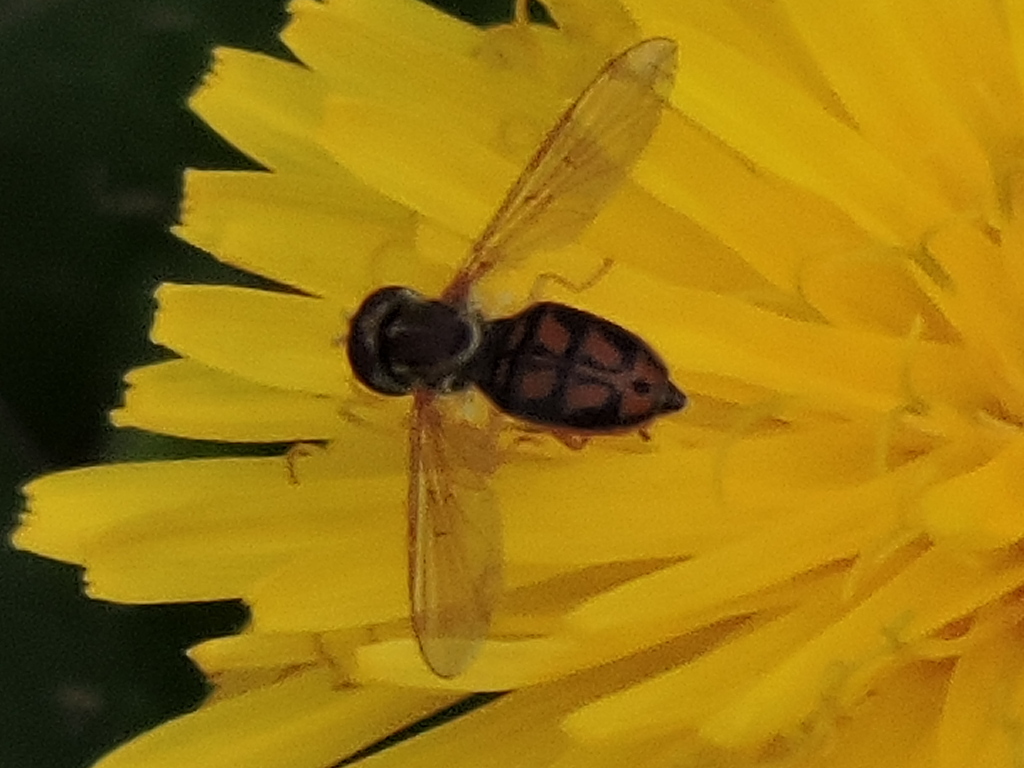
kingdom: Animalia
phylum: Arthropoda
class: Insecta
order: Diptera
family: Syrphidae
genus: Toxomerus
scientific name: Toxomerus marginatus
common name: Syrphid fly
